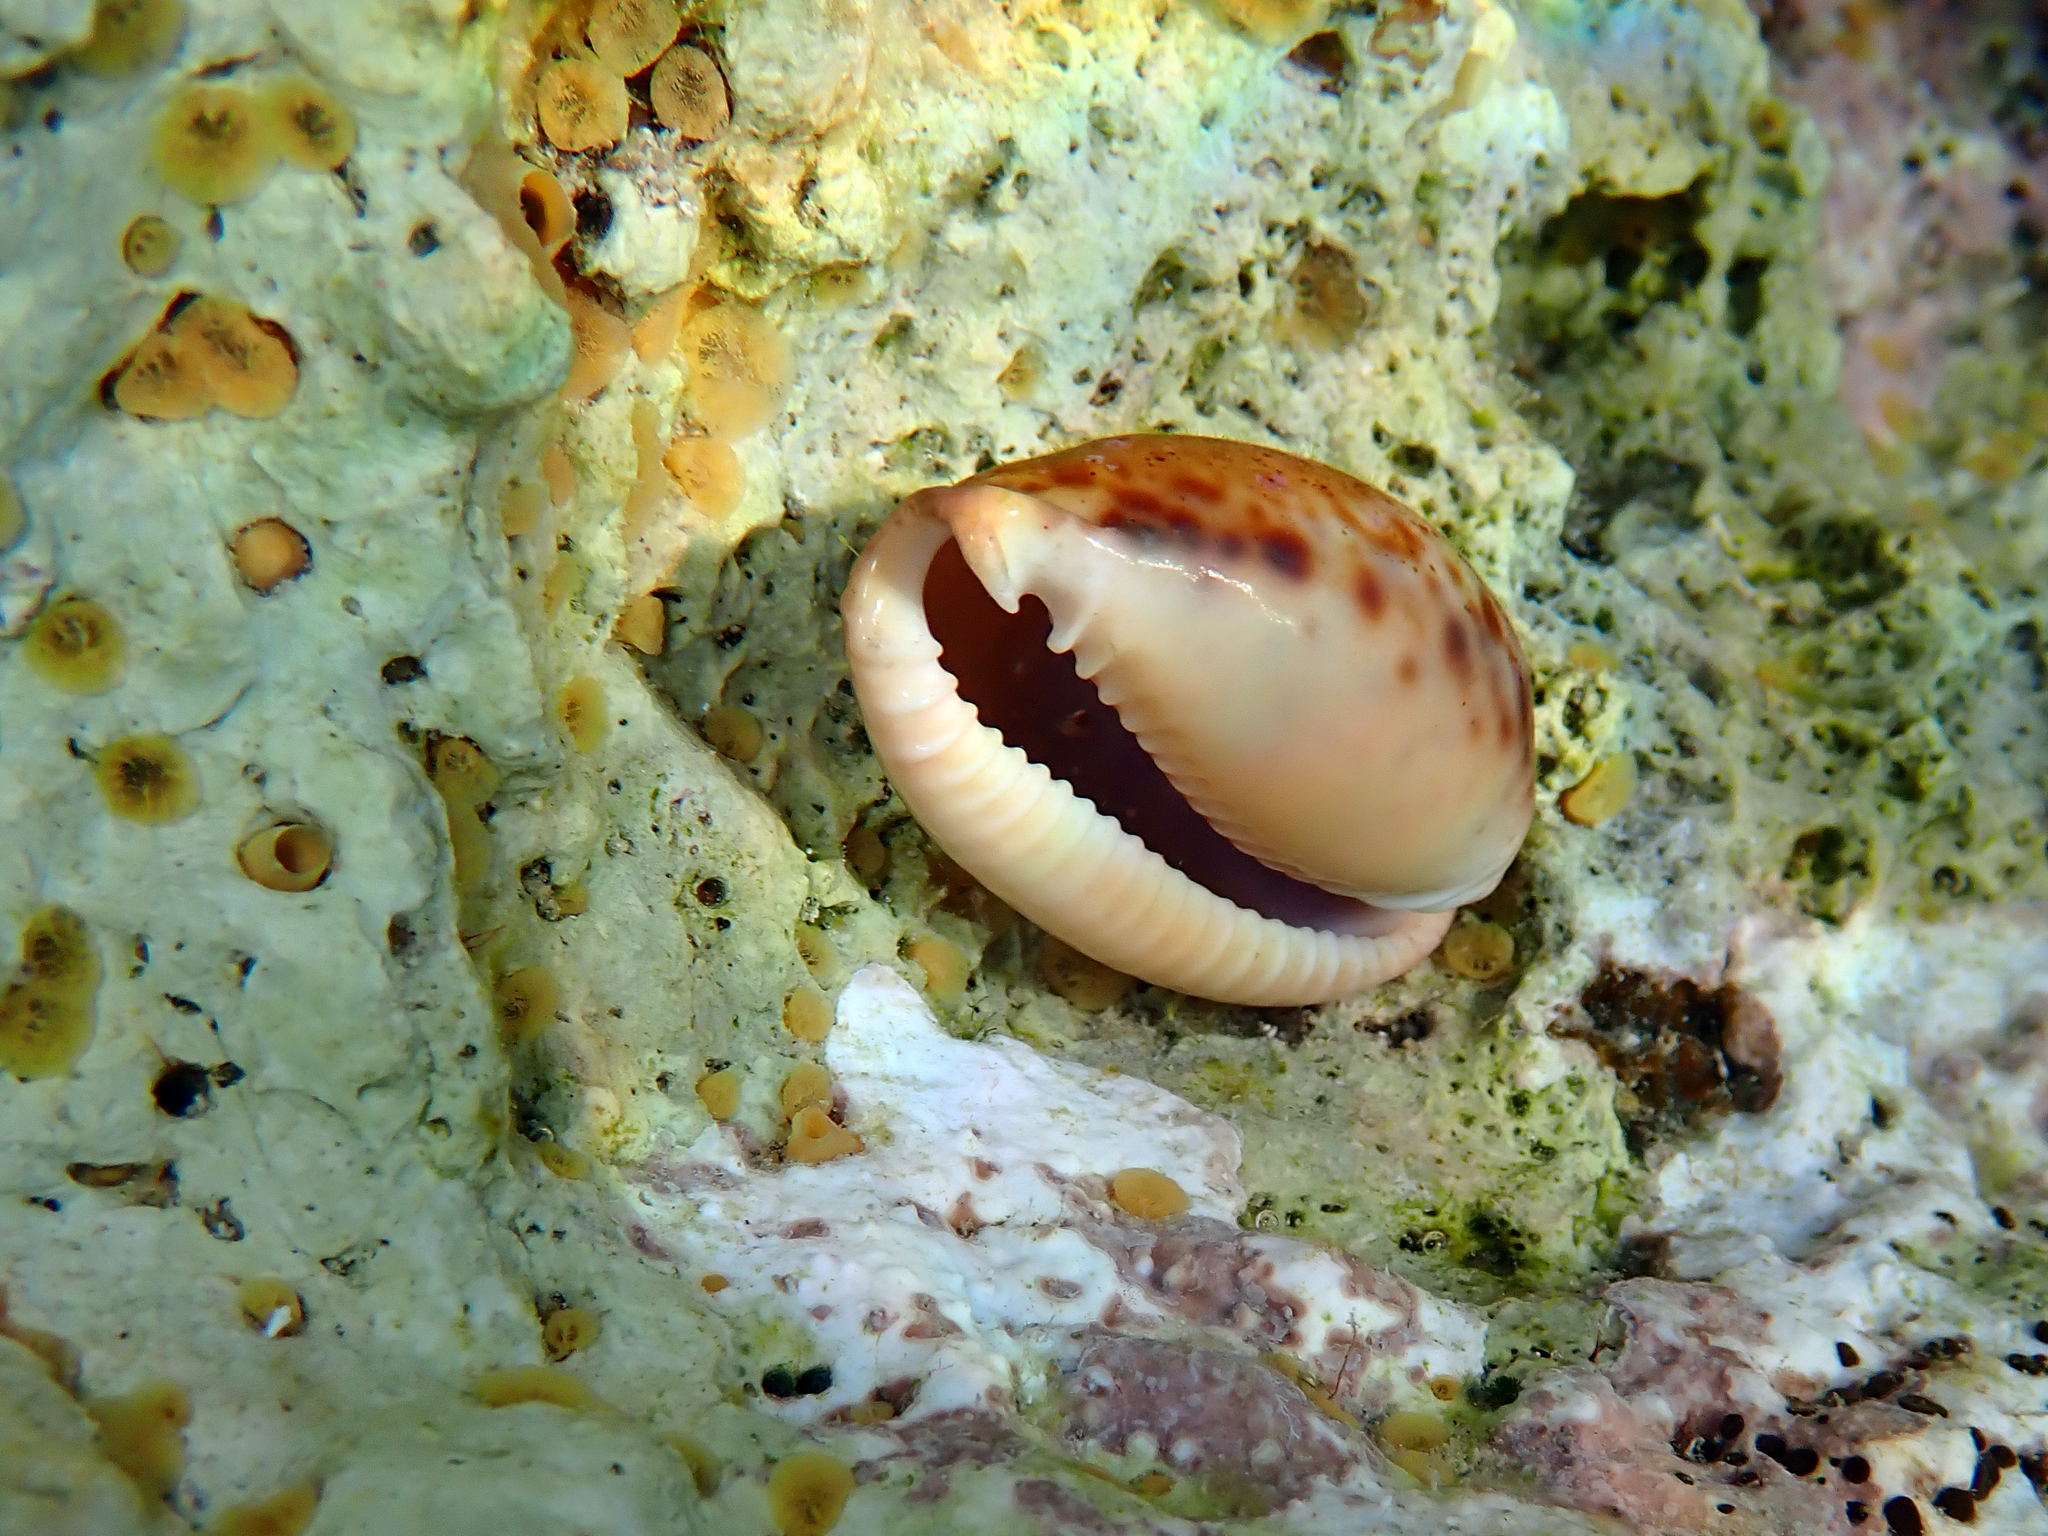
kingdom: Animalia
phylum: Mollusca
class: Gastropoda
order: Littorinimorpha
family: Cypraeidae
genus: Naria
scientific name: Naria spurca
